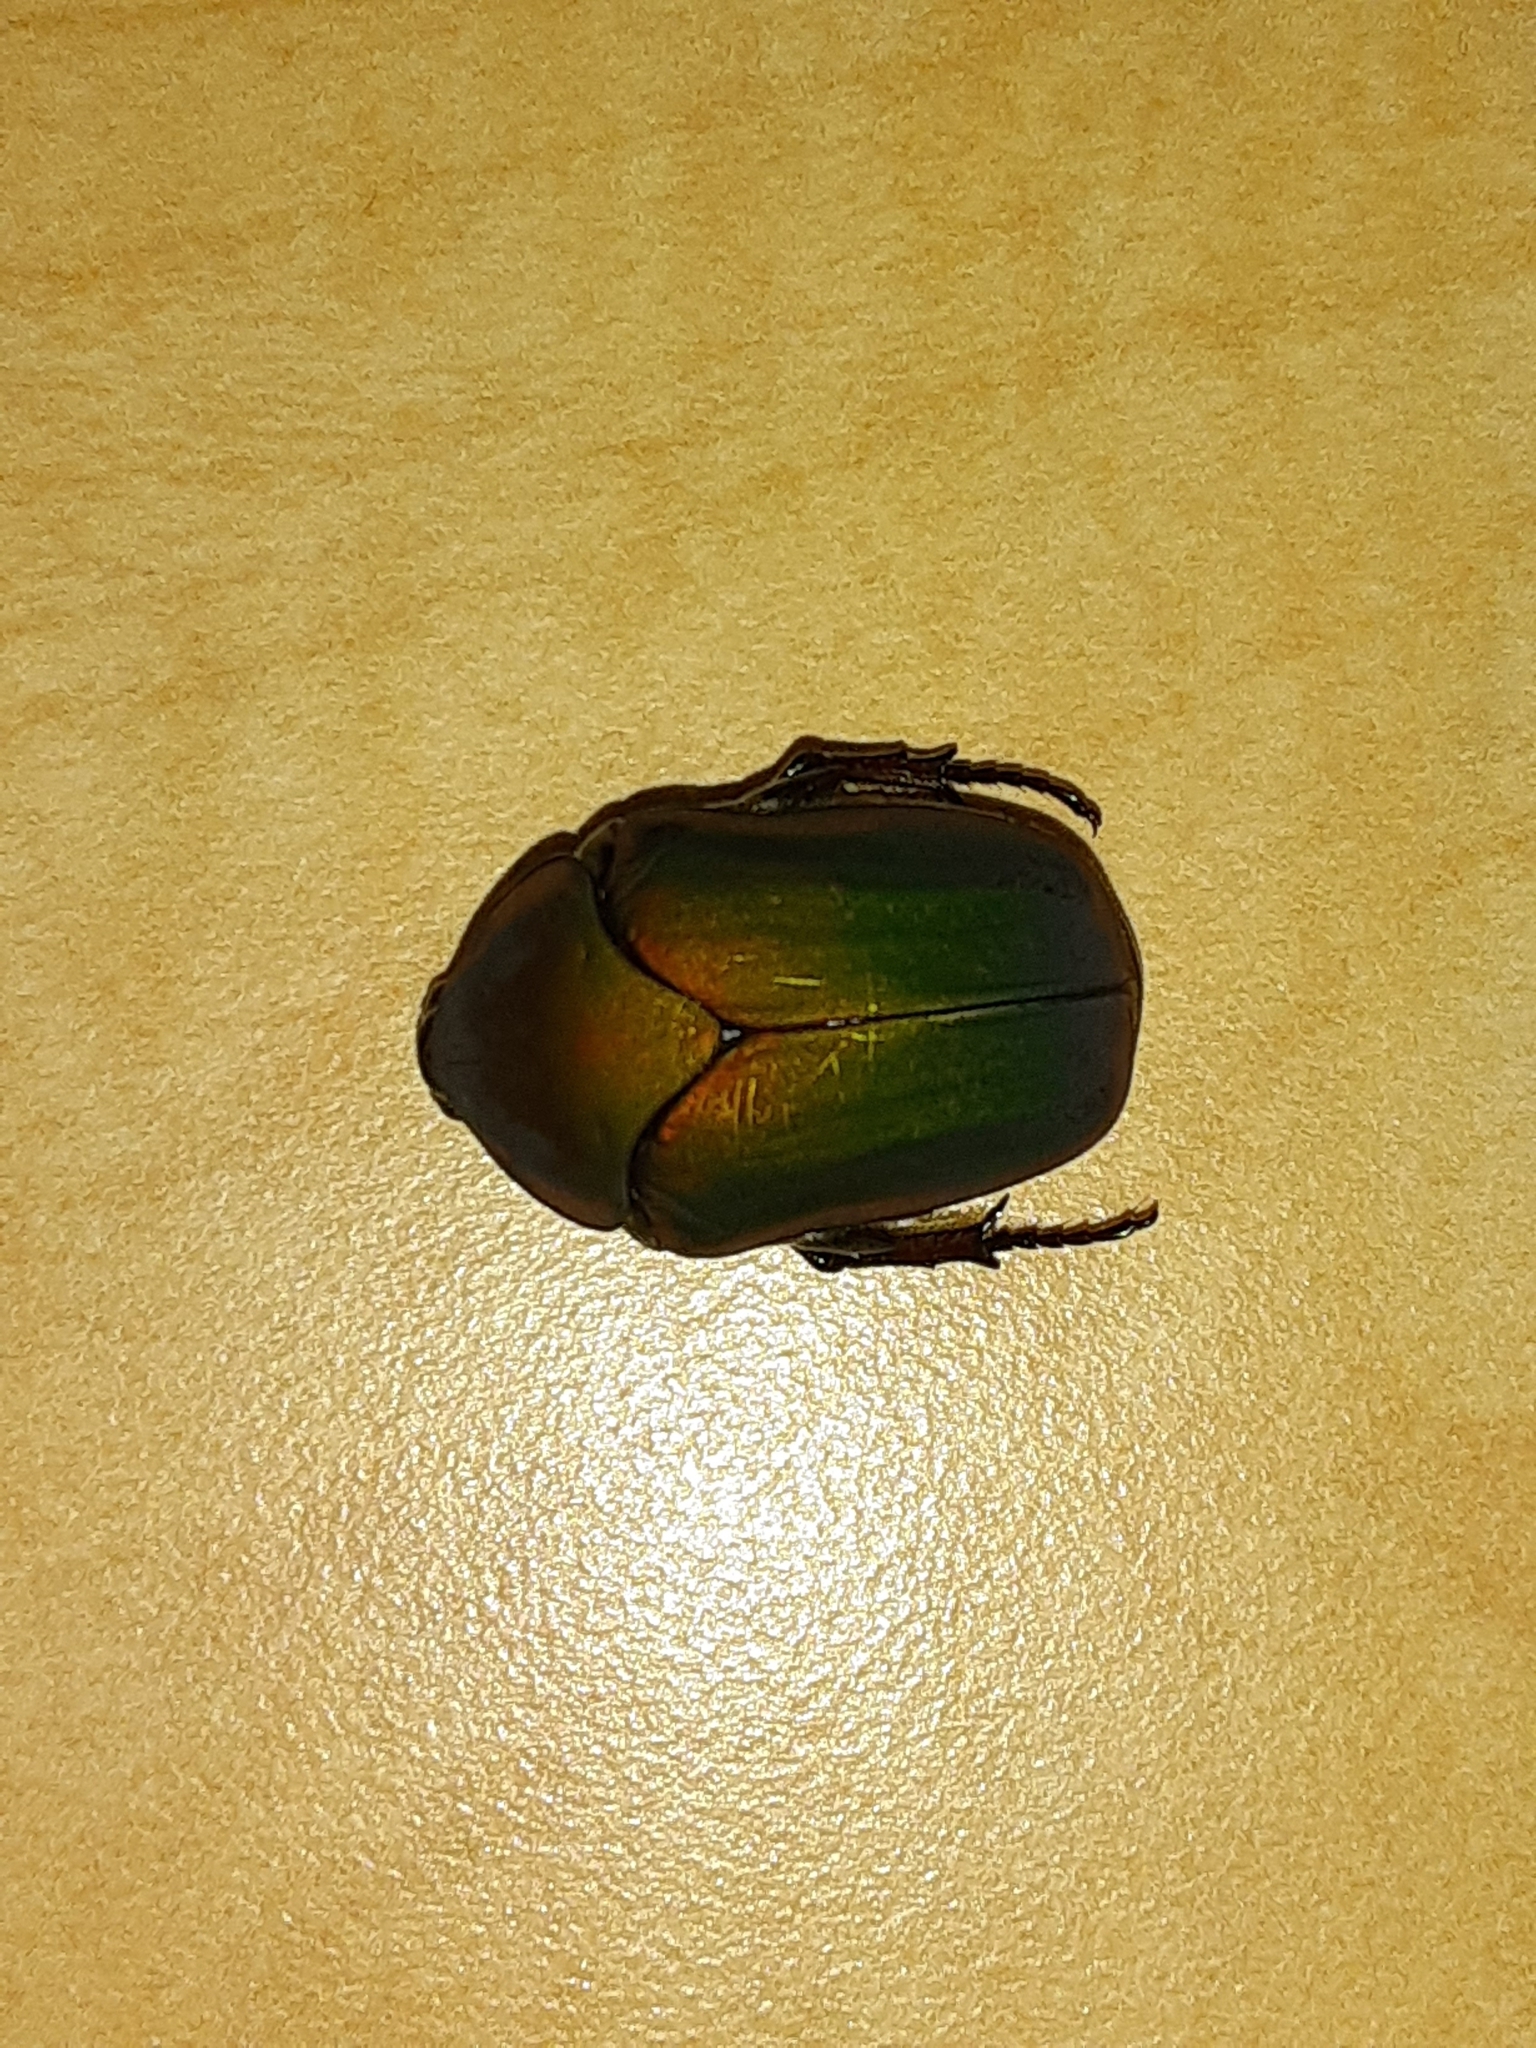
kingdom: Animalia
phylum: Arthropoda
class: Insecta
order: Coleoptera
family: Scarabaeidae
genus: Cotinis
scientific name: Cotinis nitida
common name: Common green june beetle
